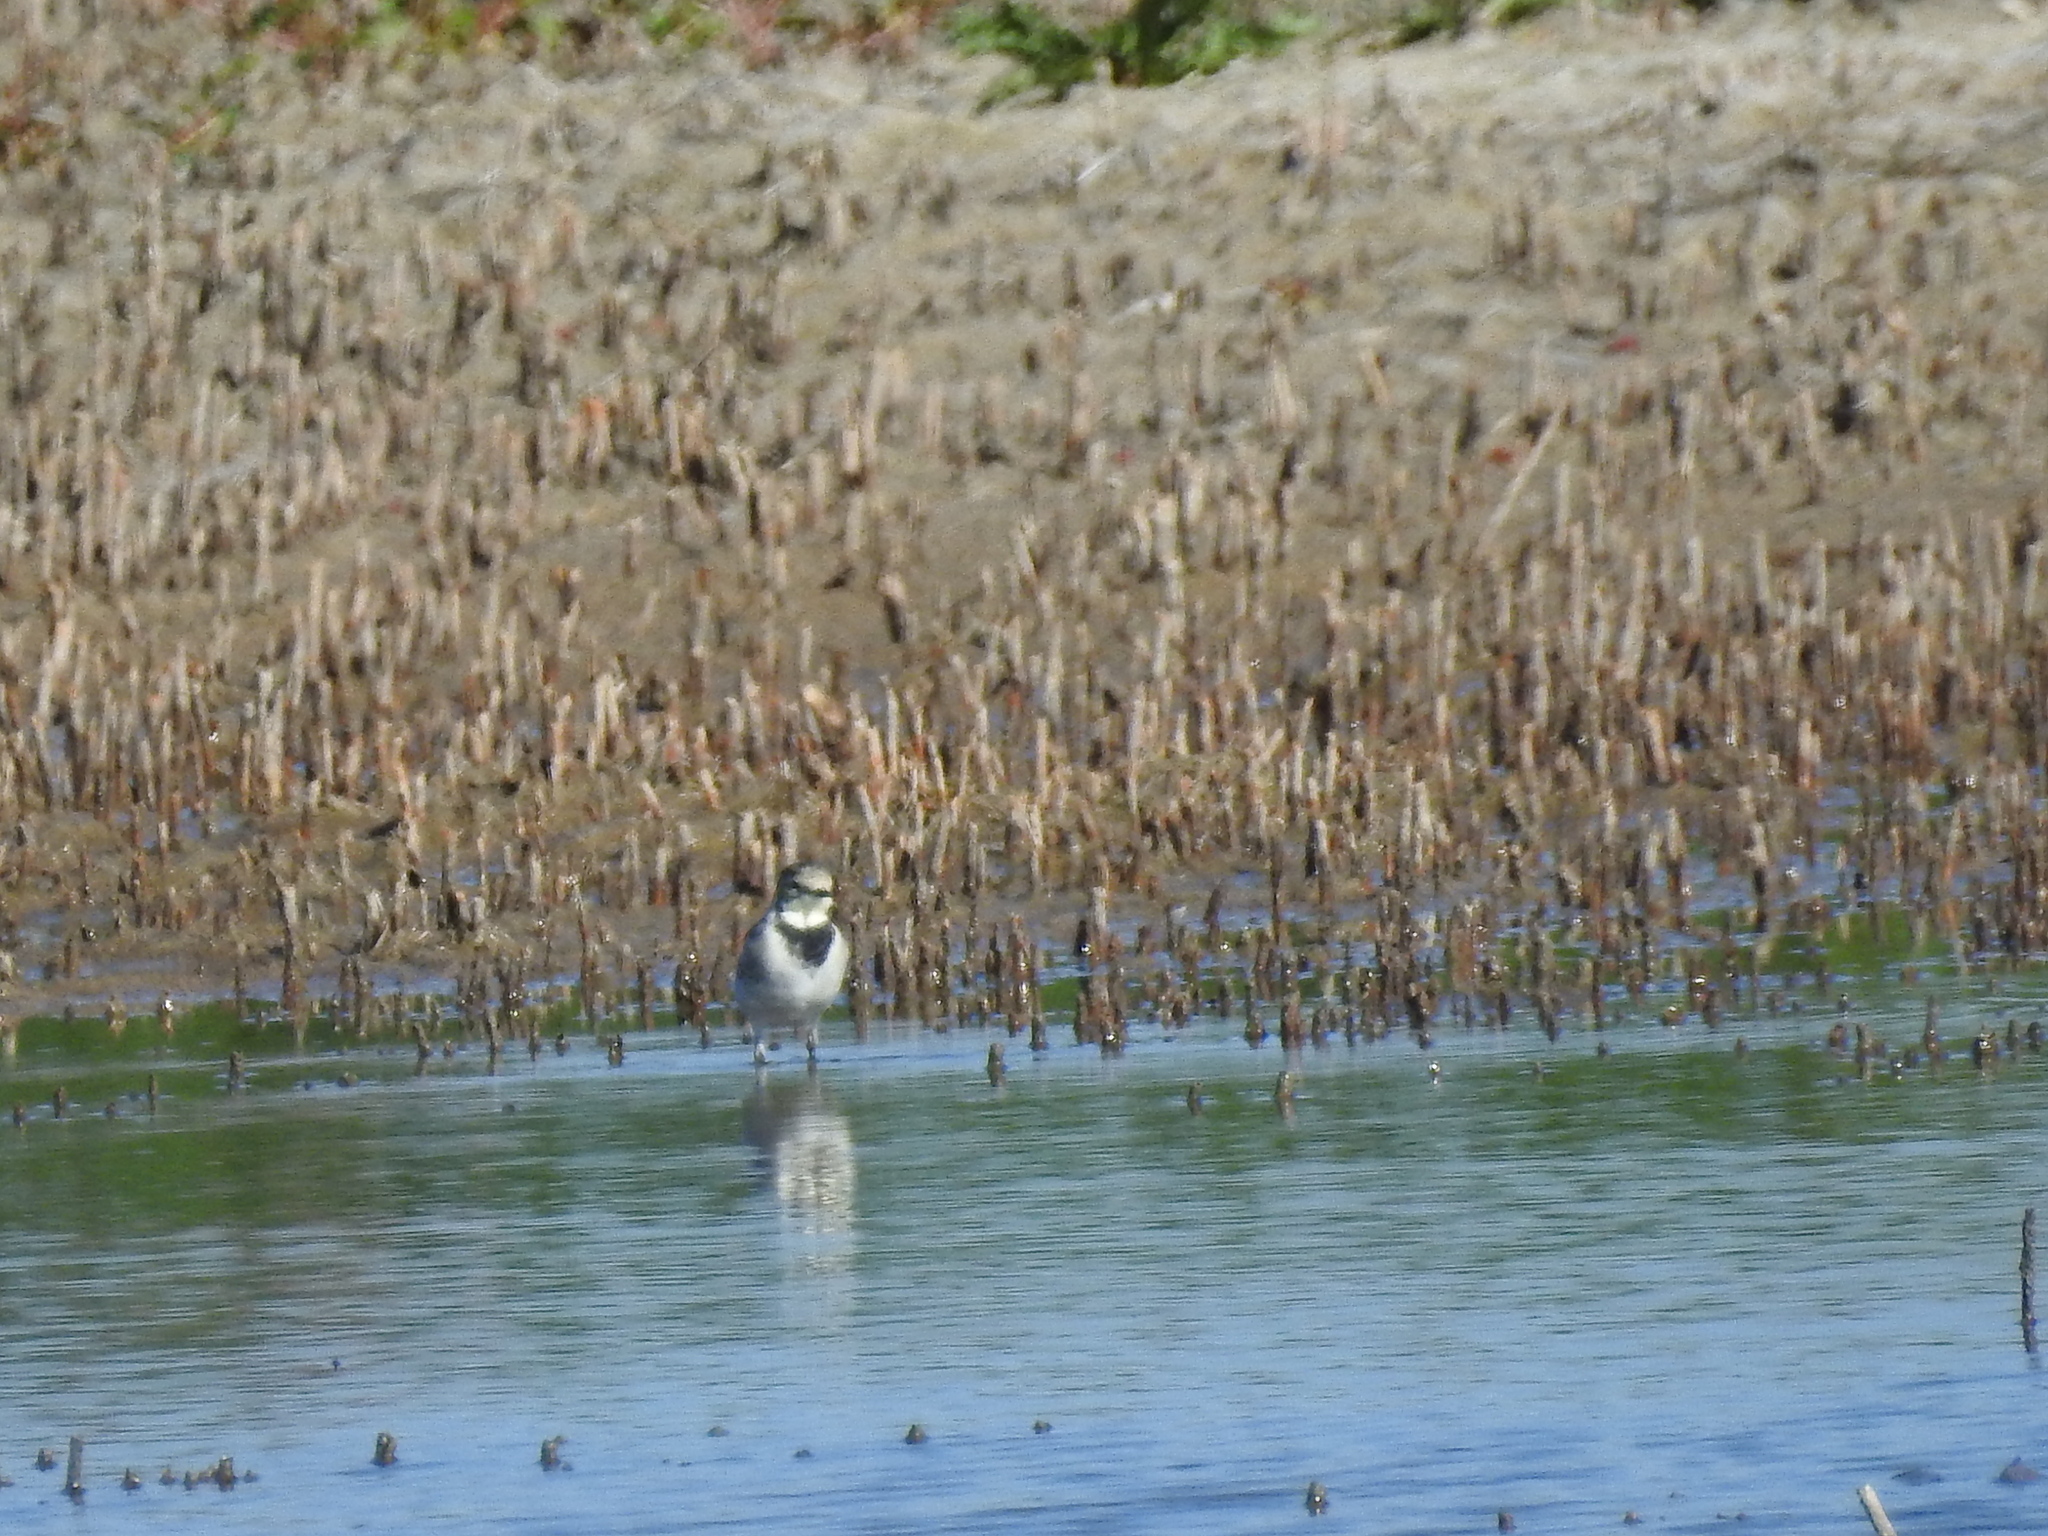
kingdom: Animalia
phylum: Chordata
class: Aves
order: Passeriformes
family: Motacillidae
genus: Motacilla
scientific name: Motacilla alba
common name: White wagtail
